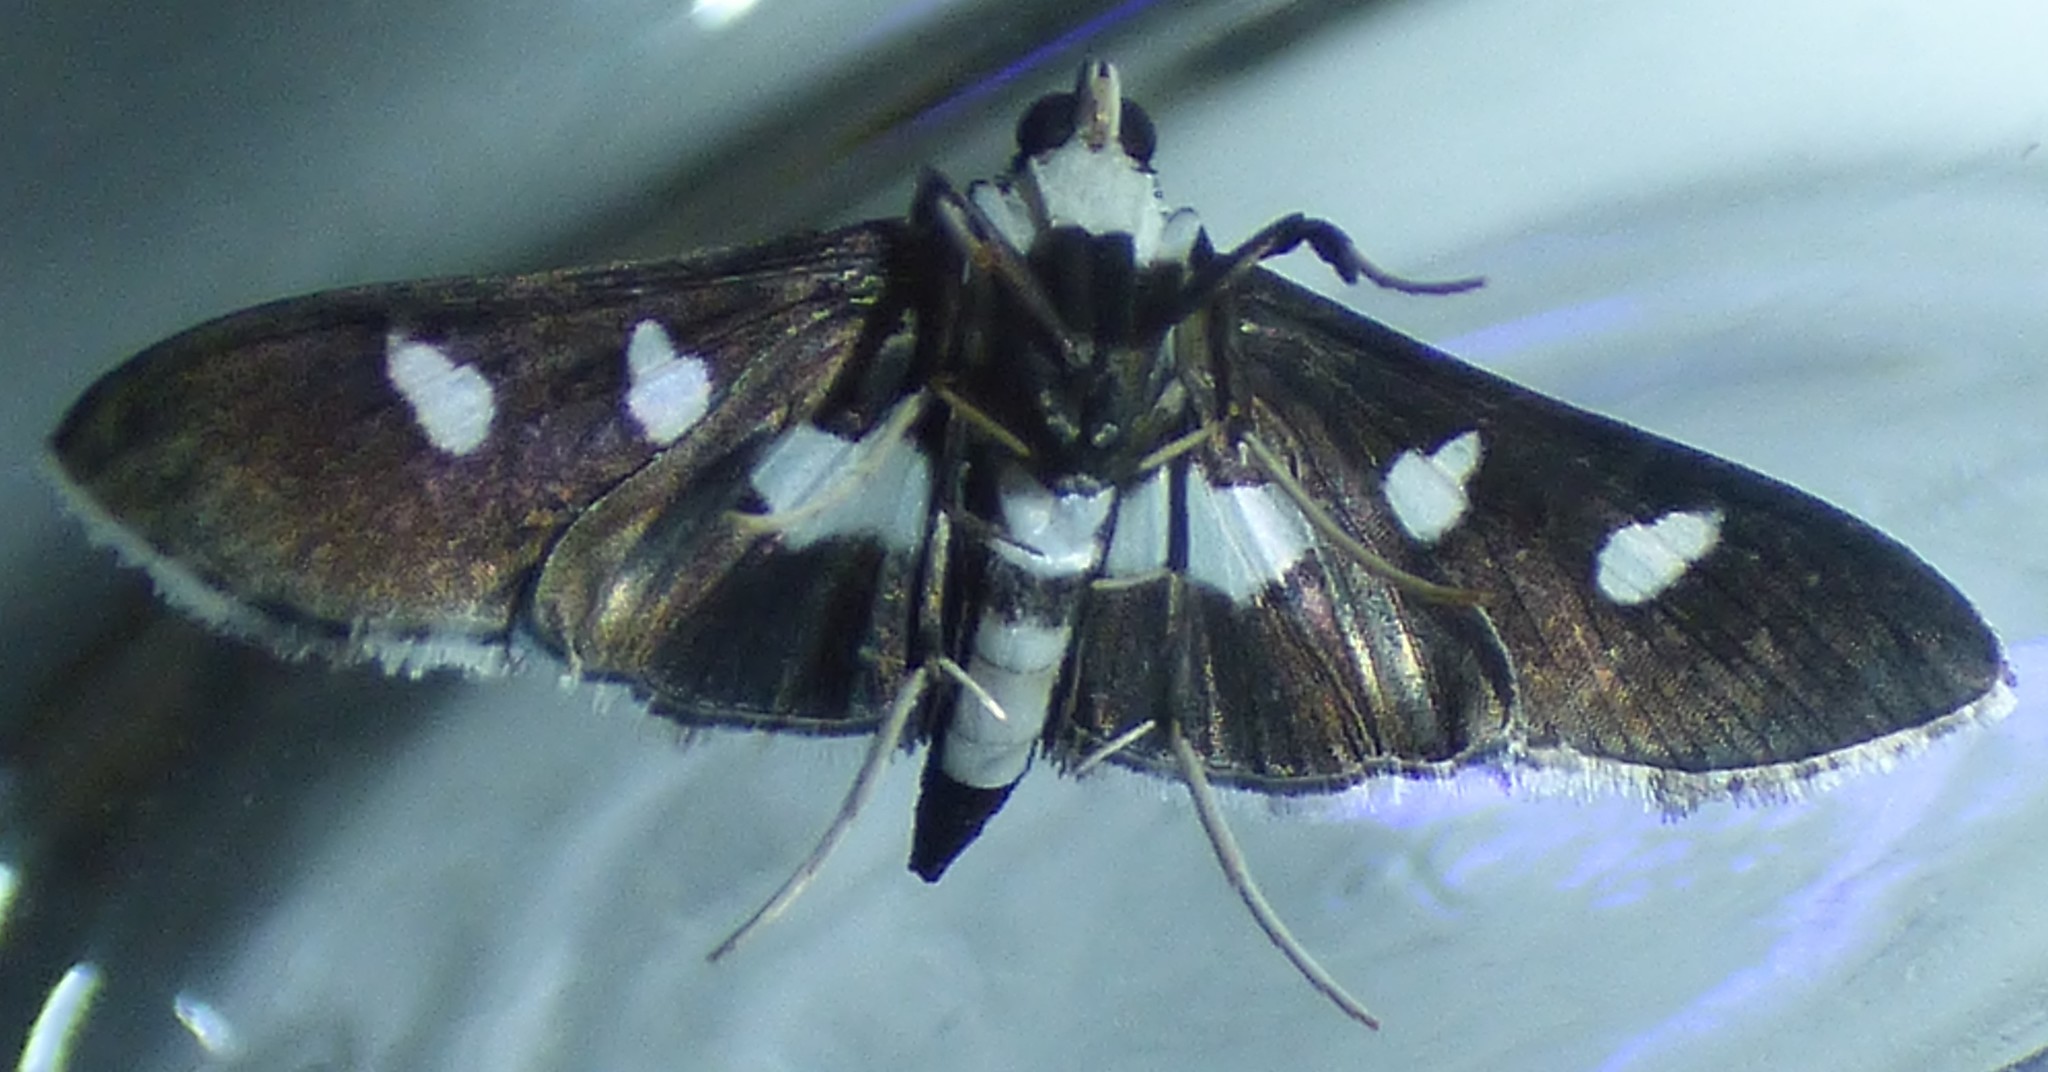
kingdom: Animalia
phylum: Arthropoda
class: Insecta
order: Lepidoptera
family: Crambidae
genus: Desmia
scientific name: Desmia funeralis
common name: Grape leaf folder moth
